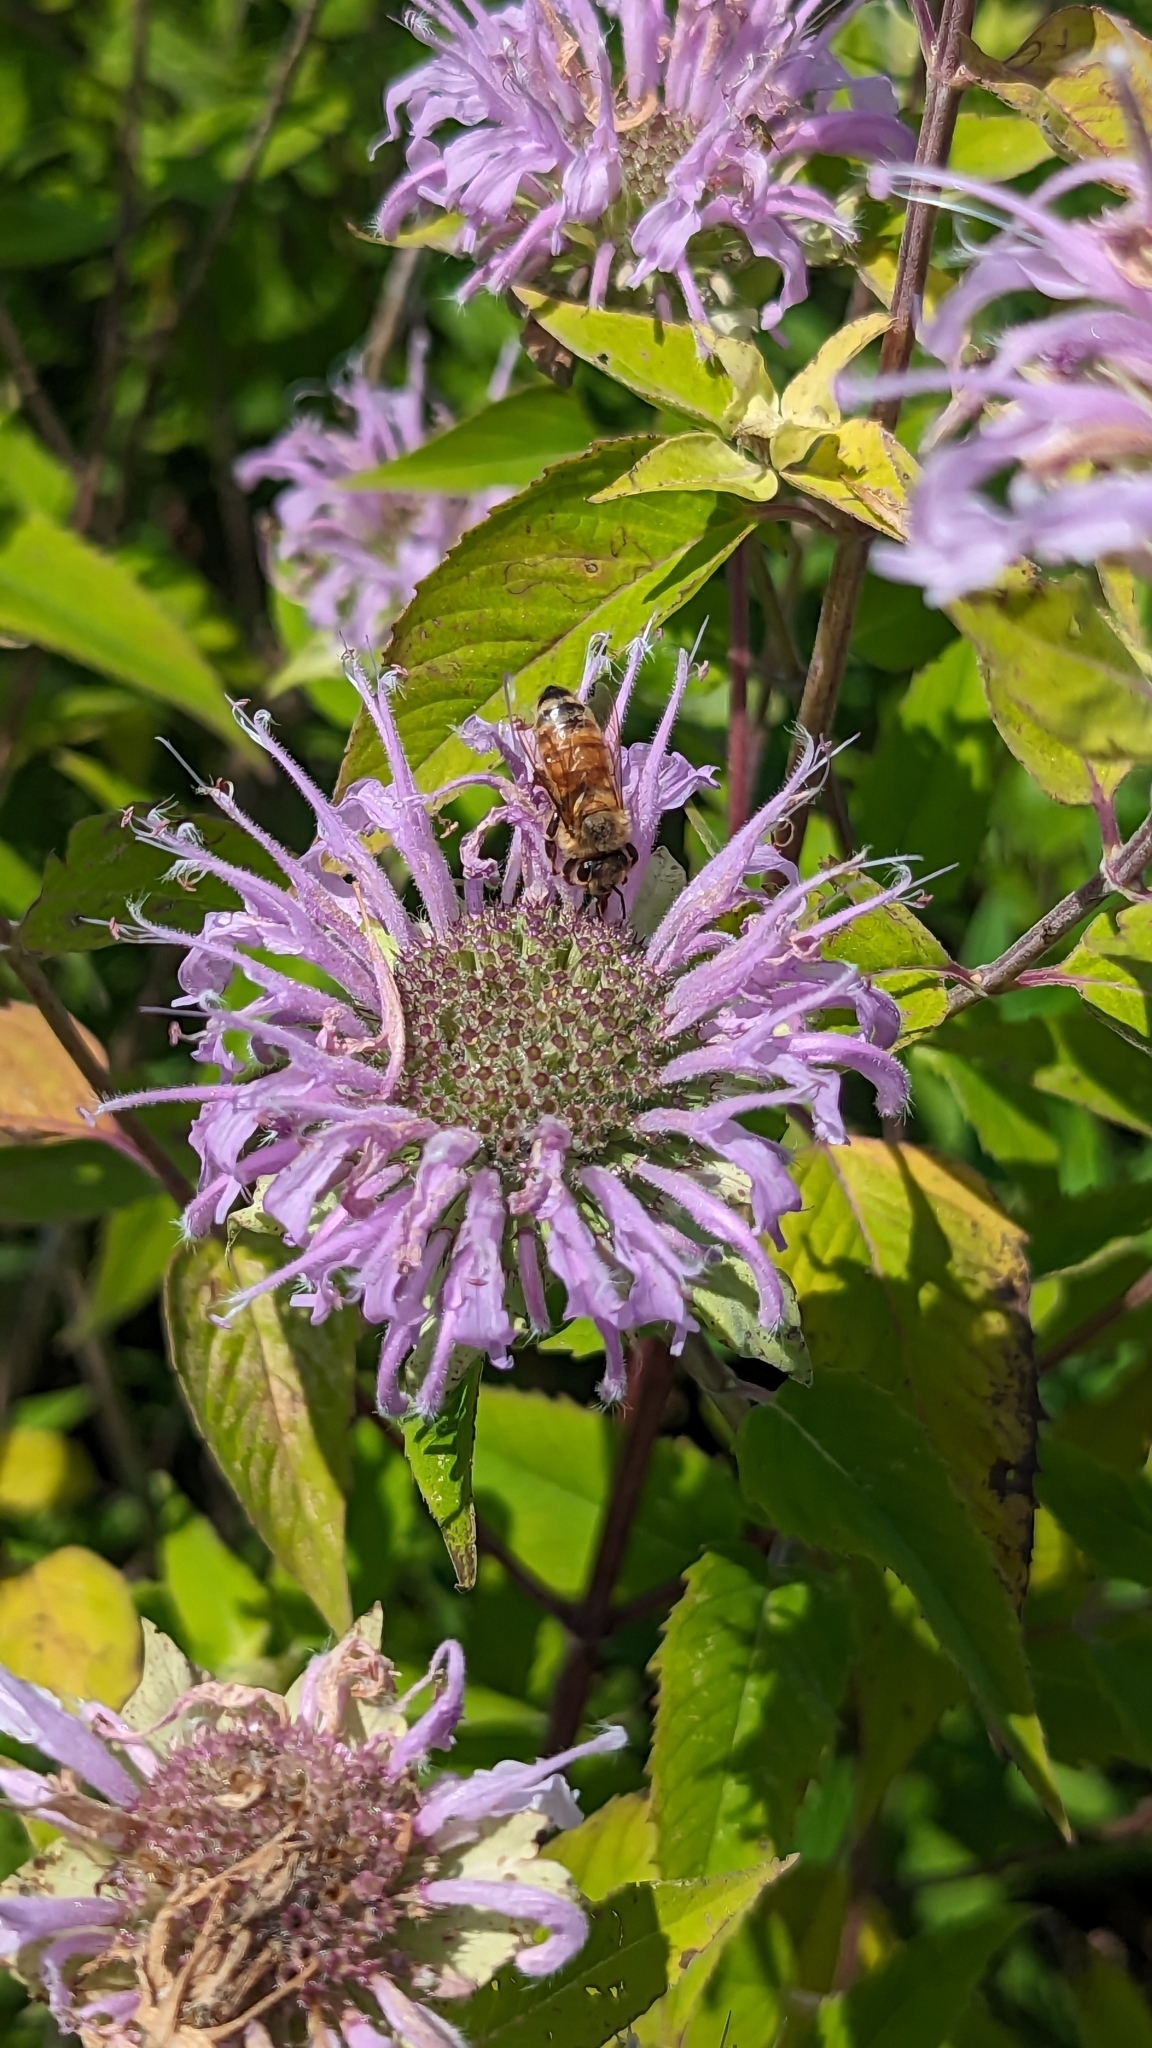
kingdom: Animalia
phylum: Arthropoda
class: Insecta
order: Hymenoptera
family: Apidae
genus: Apis
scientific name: Apis mellifera
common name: Honey bee
